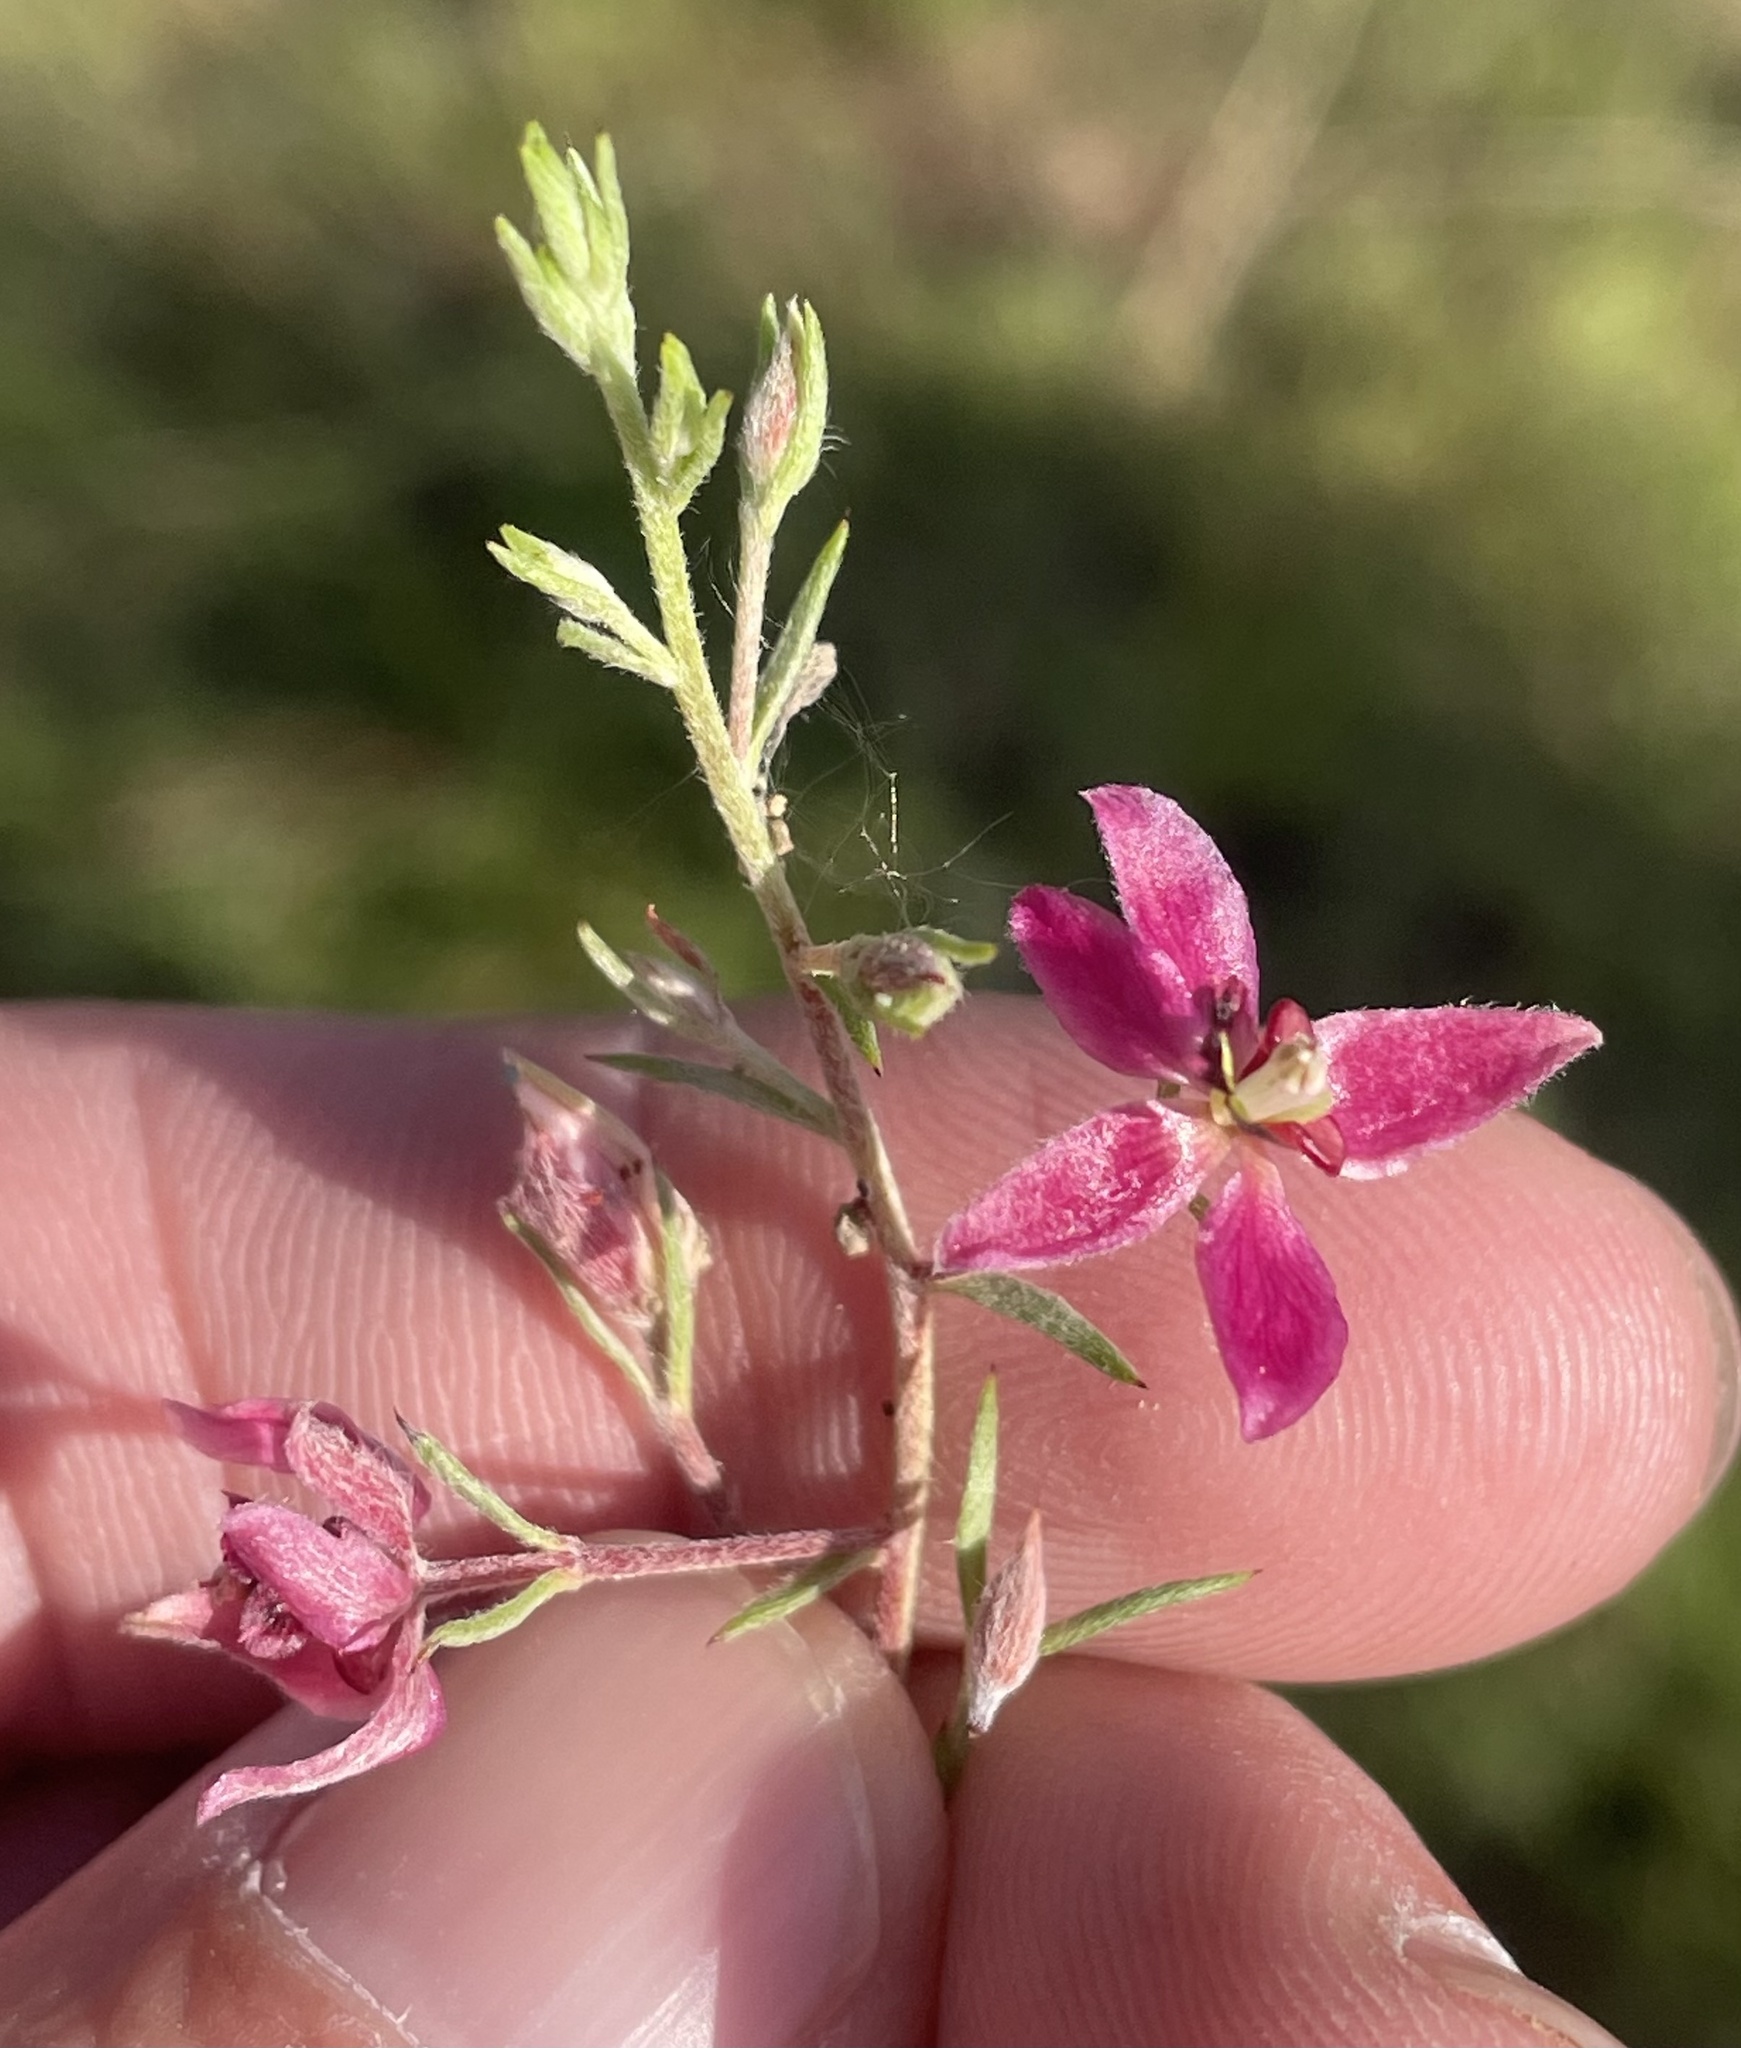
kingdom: Plantae
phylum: Tracheophyta
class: Magnoliopsida
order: Zygophyllales
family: Krameriaceae
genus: Krameria
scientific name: Krameria lanceolata
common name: Ratany
